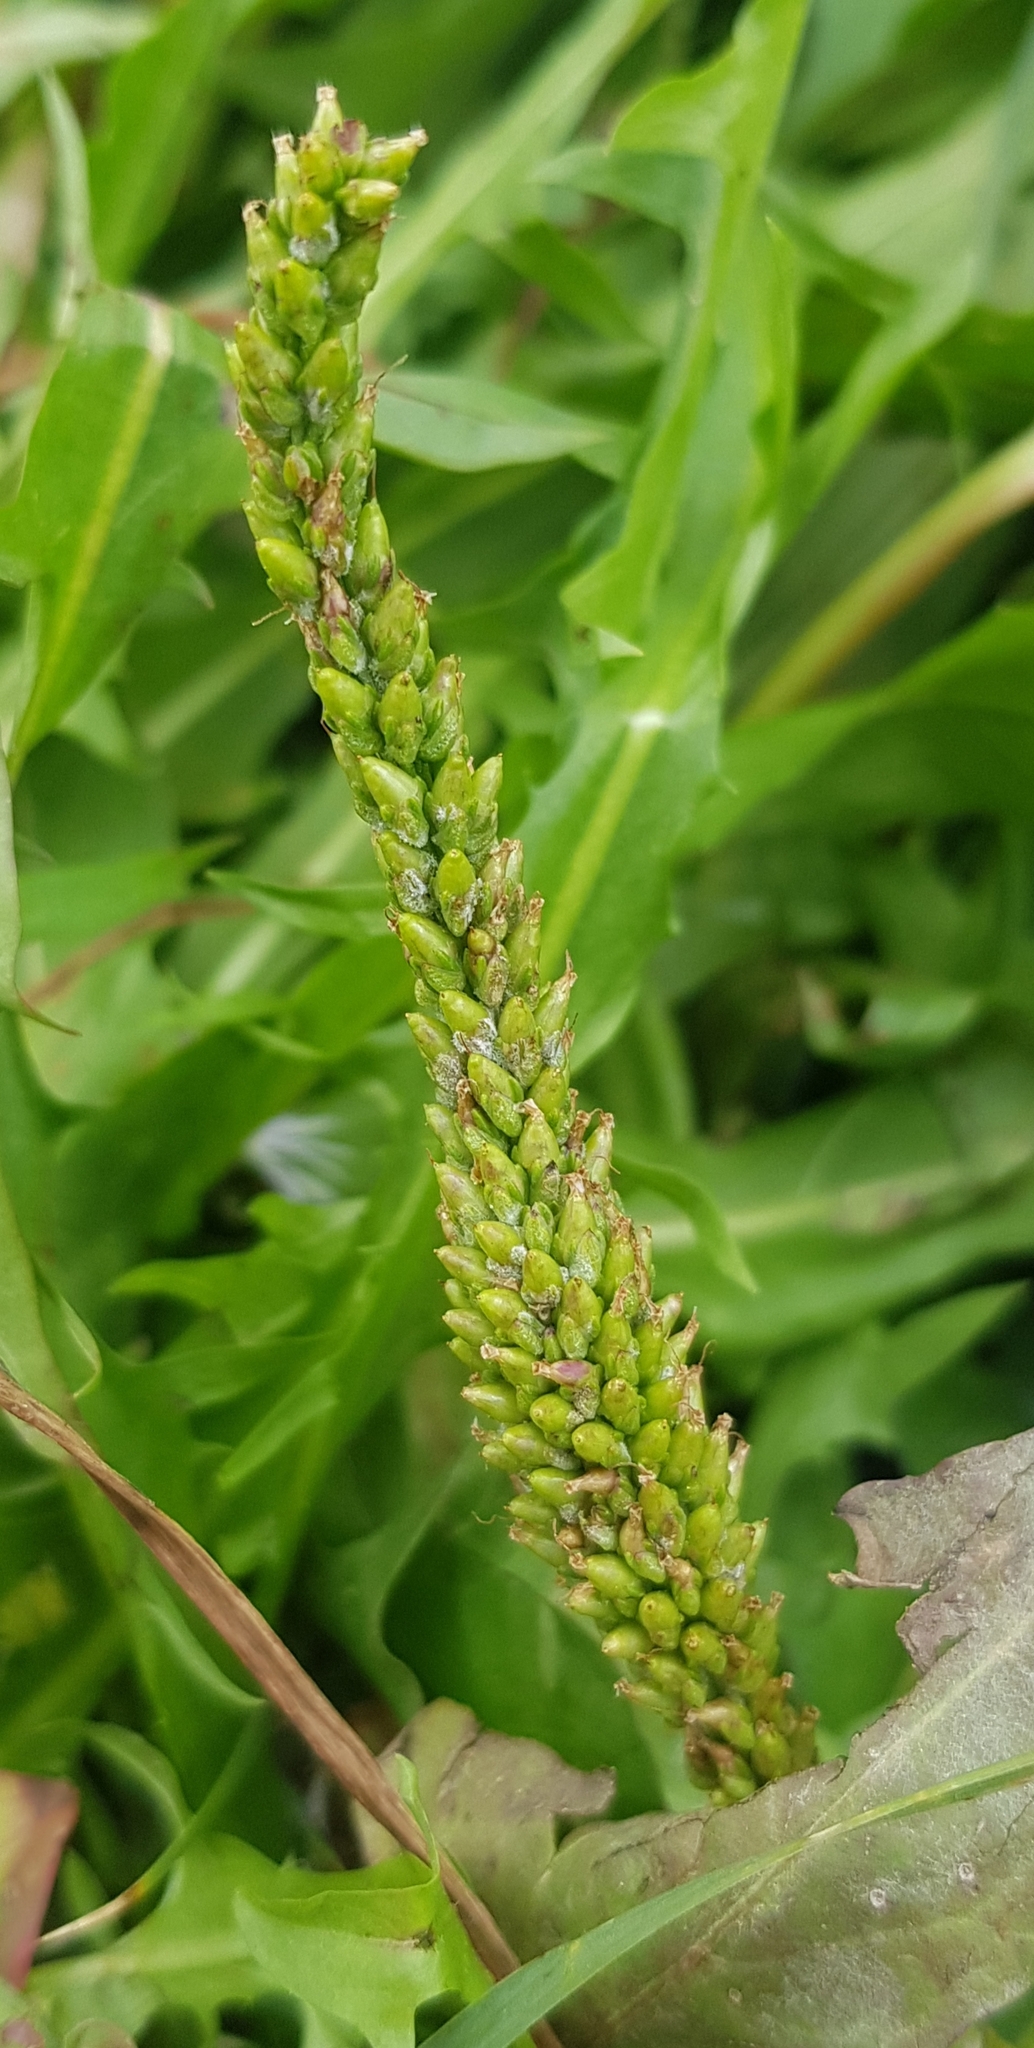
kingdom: Plantae
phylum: Tracheophyta
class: Magnoliopsida
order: Lamiales
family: Plantaginaceae
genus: Plantago
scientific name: Plantago depressa
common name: Depressed plantain
